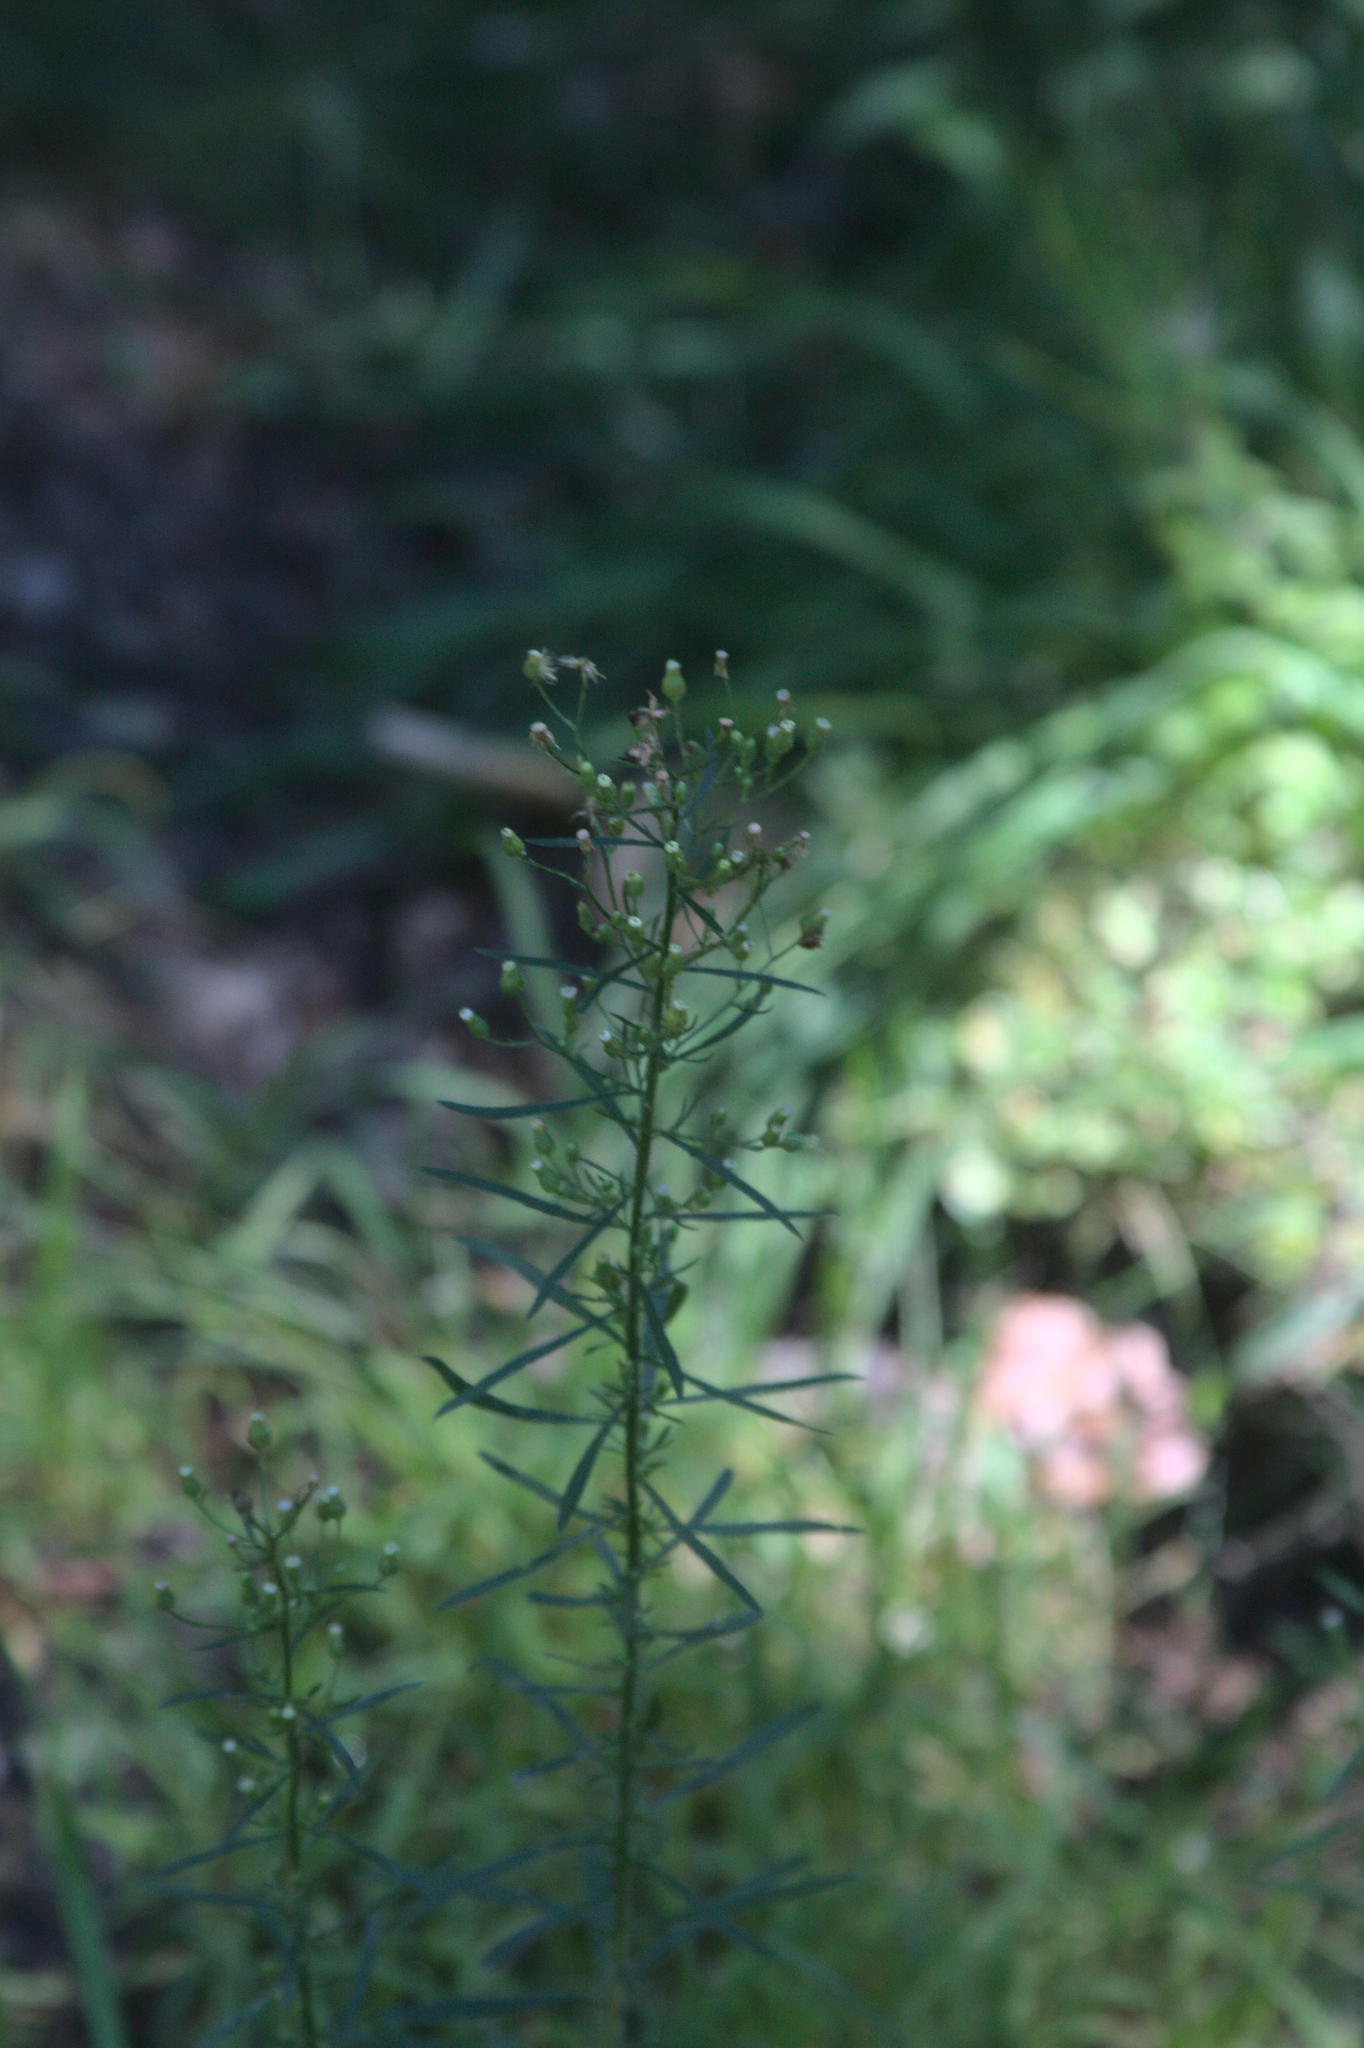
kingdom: Plantae
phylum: Tracheophyta
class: Magnoliopsida
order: Asterales
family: Asteraceae
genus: Erigeron
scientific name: Erigeron canadensis
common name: Canadian fleabane
